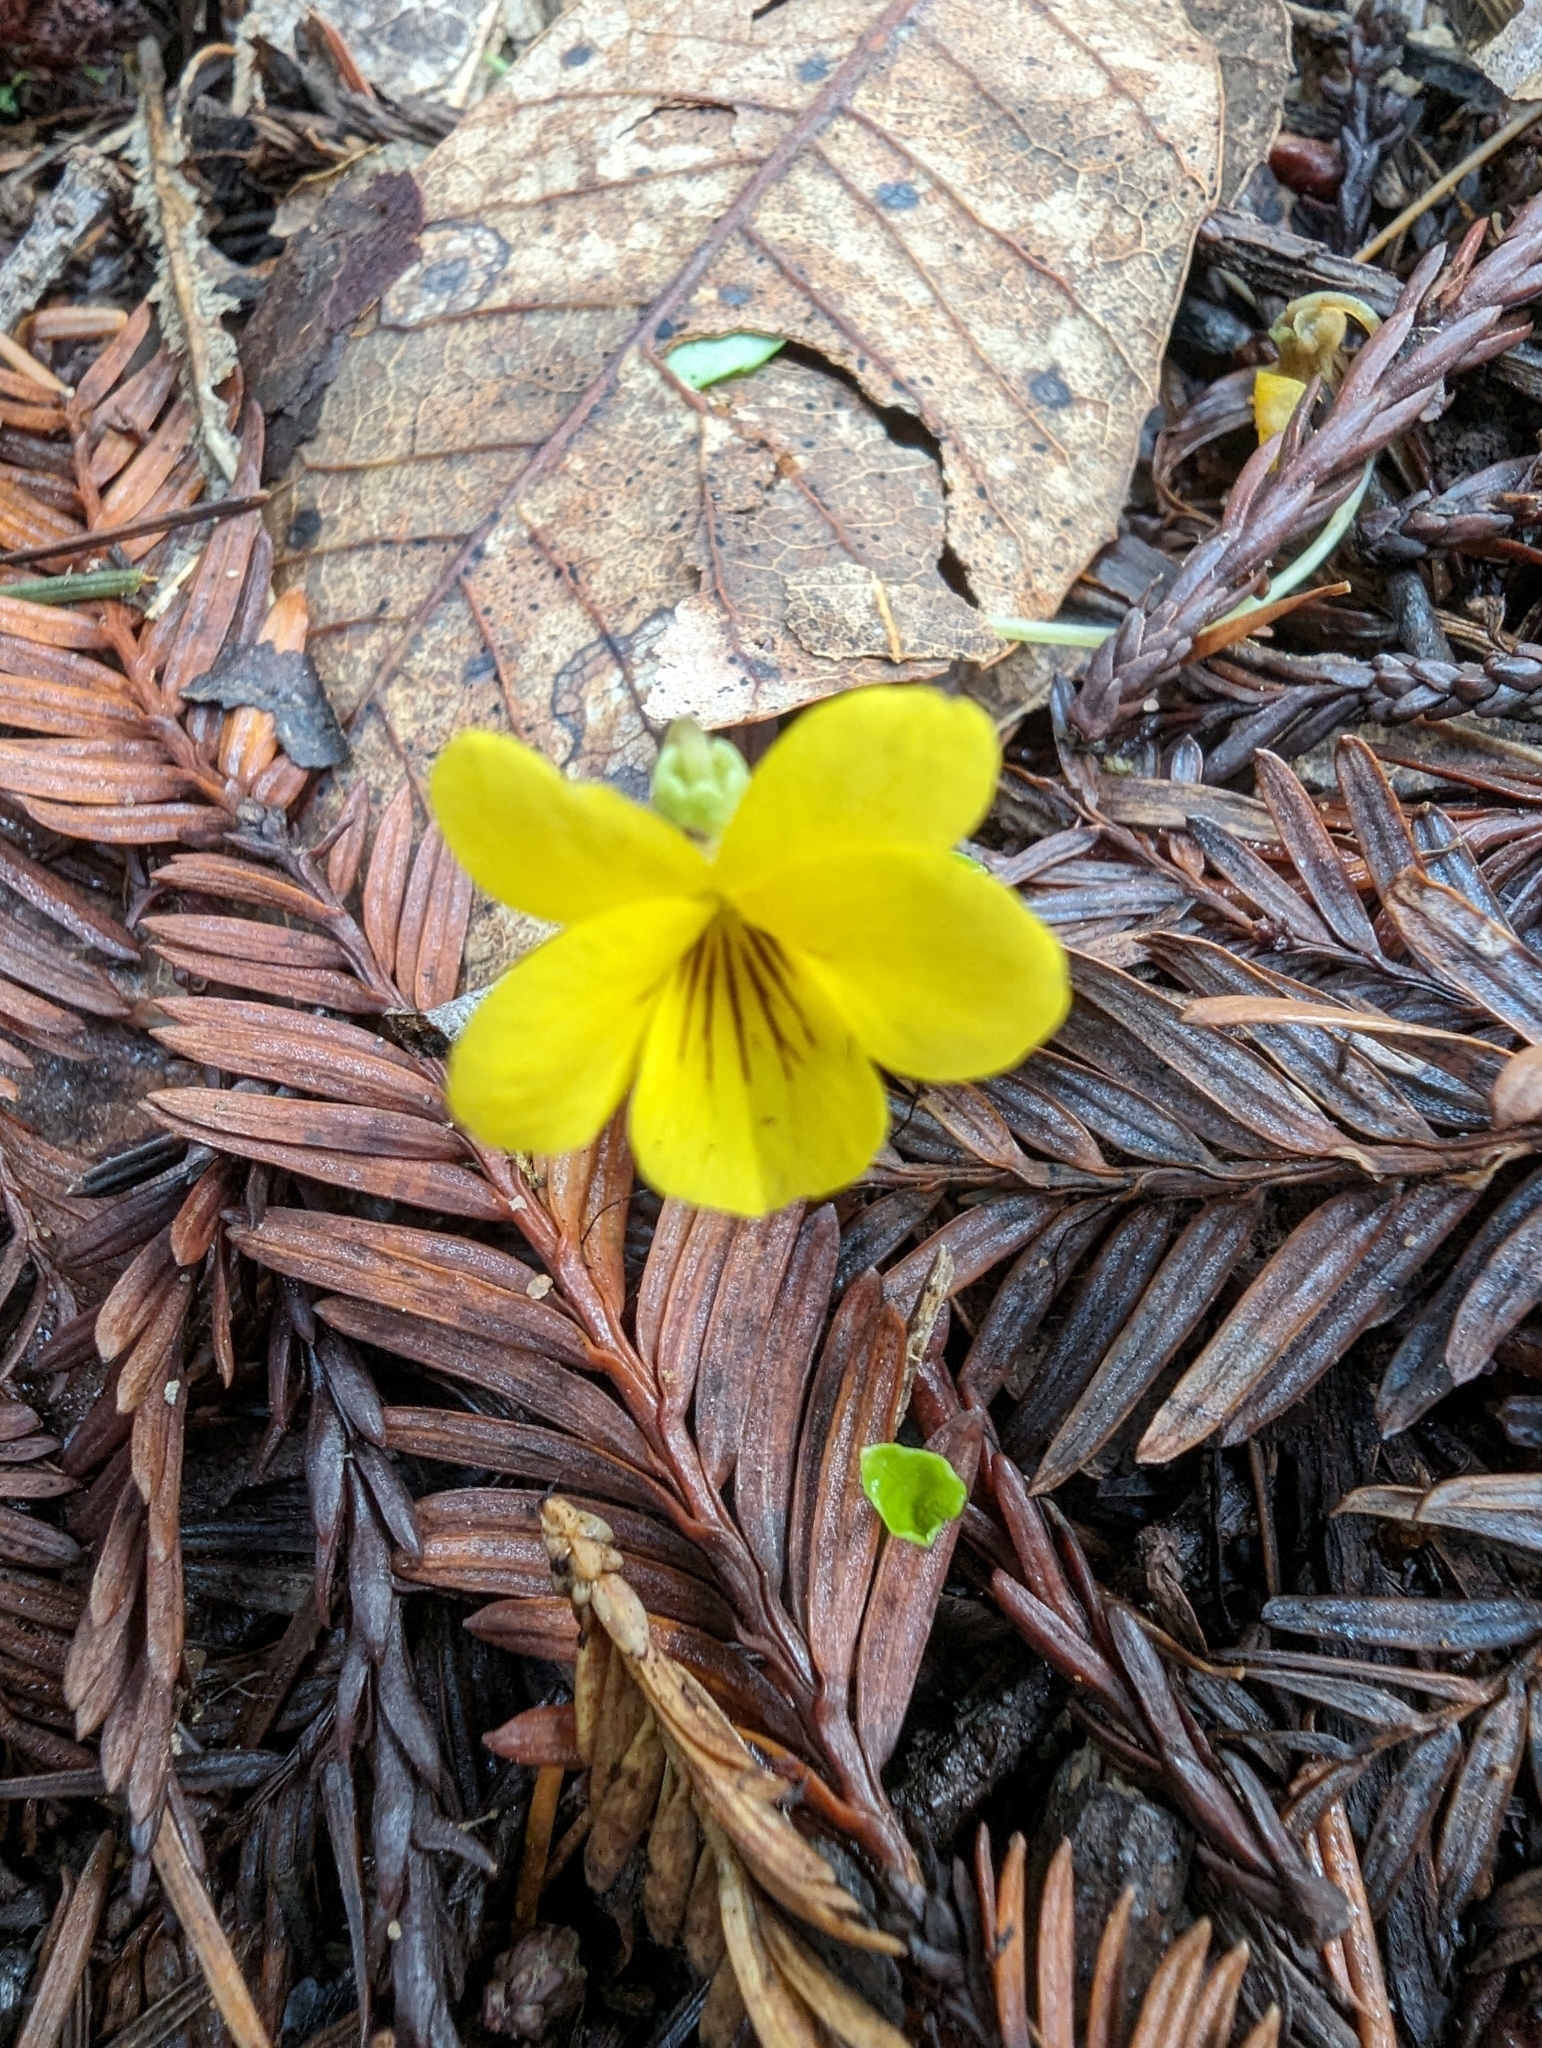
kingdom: Plantae
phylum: Tracheophyta
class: Magnoliopsida
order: Malpighiales
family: Violaceae
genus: Viola
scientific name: Viola sempervirens
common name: Evergreen violet
